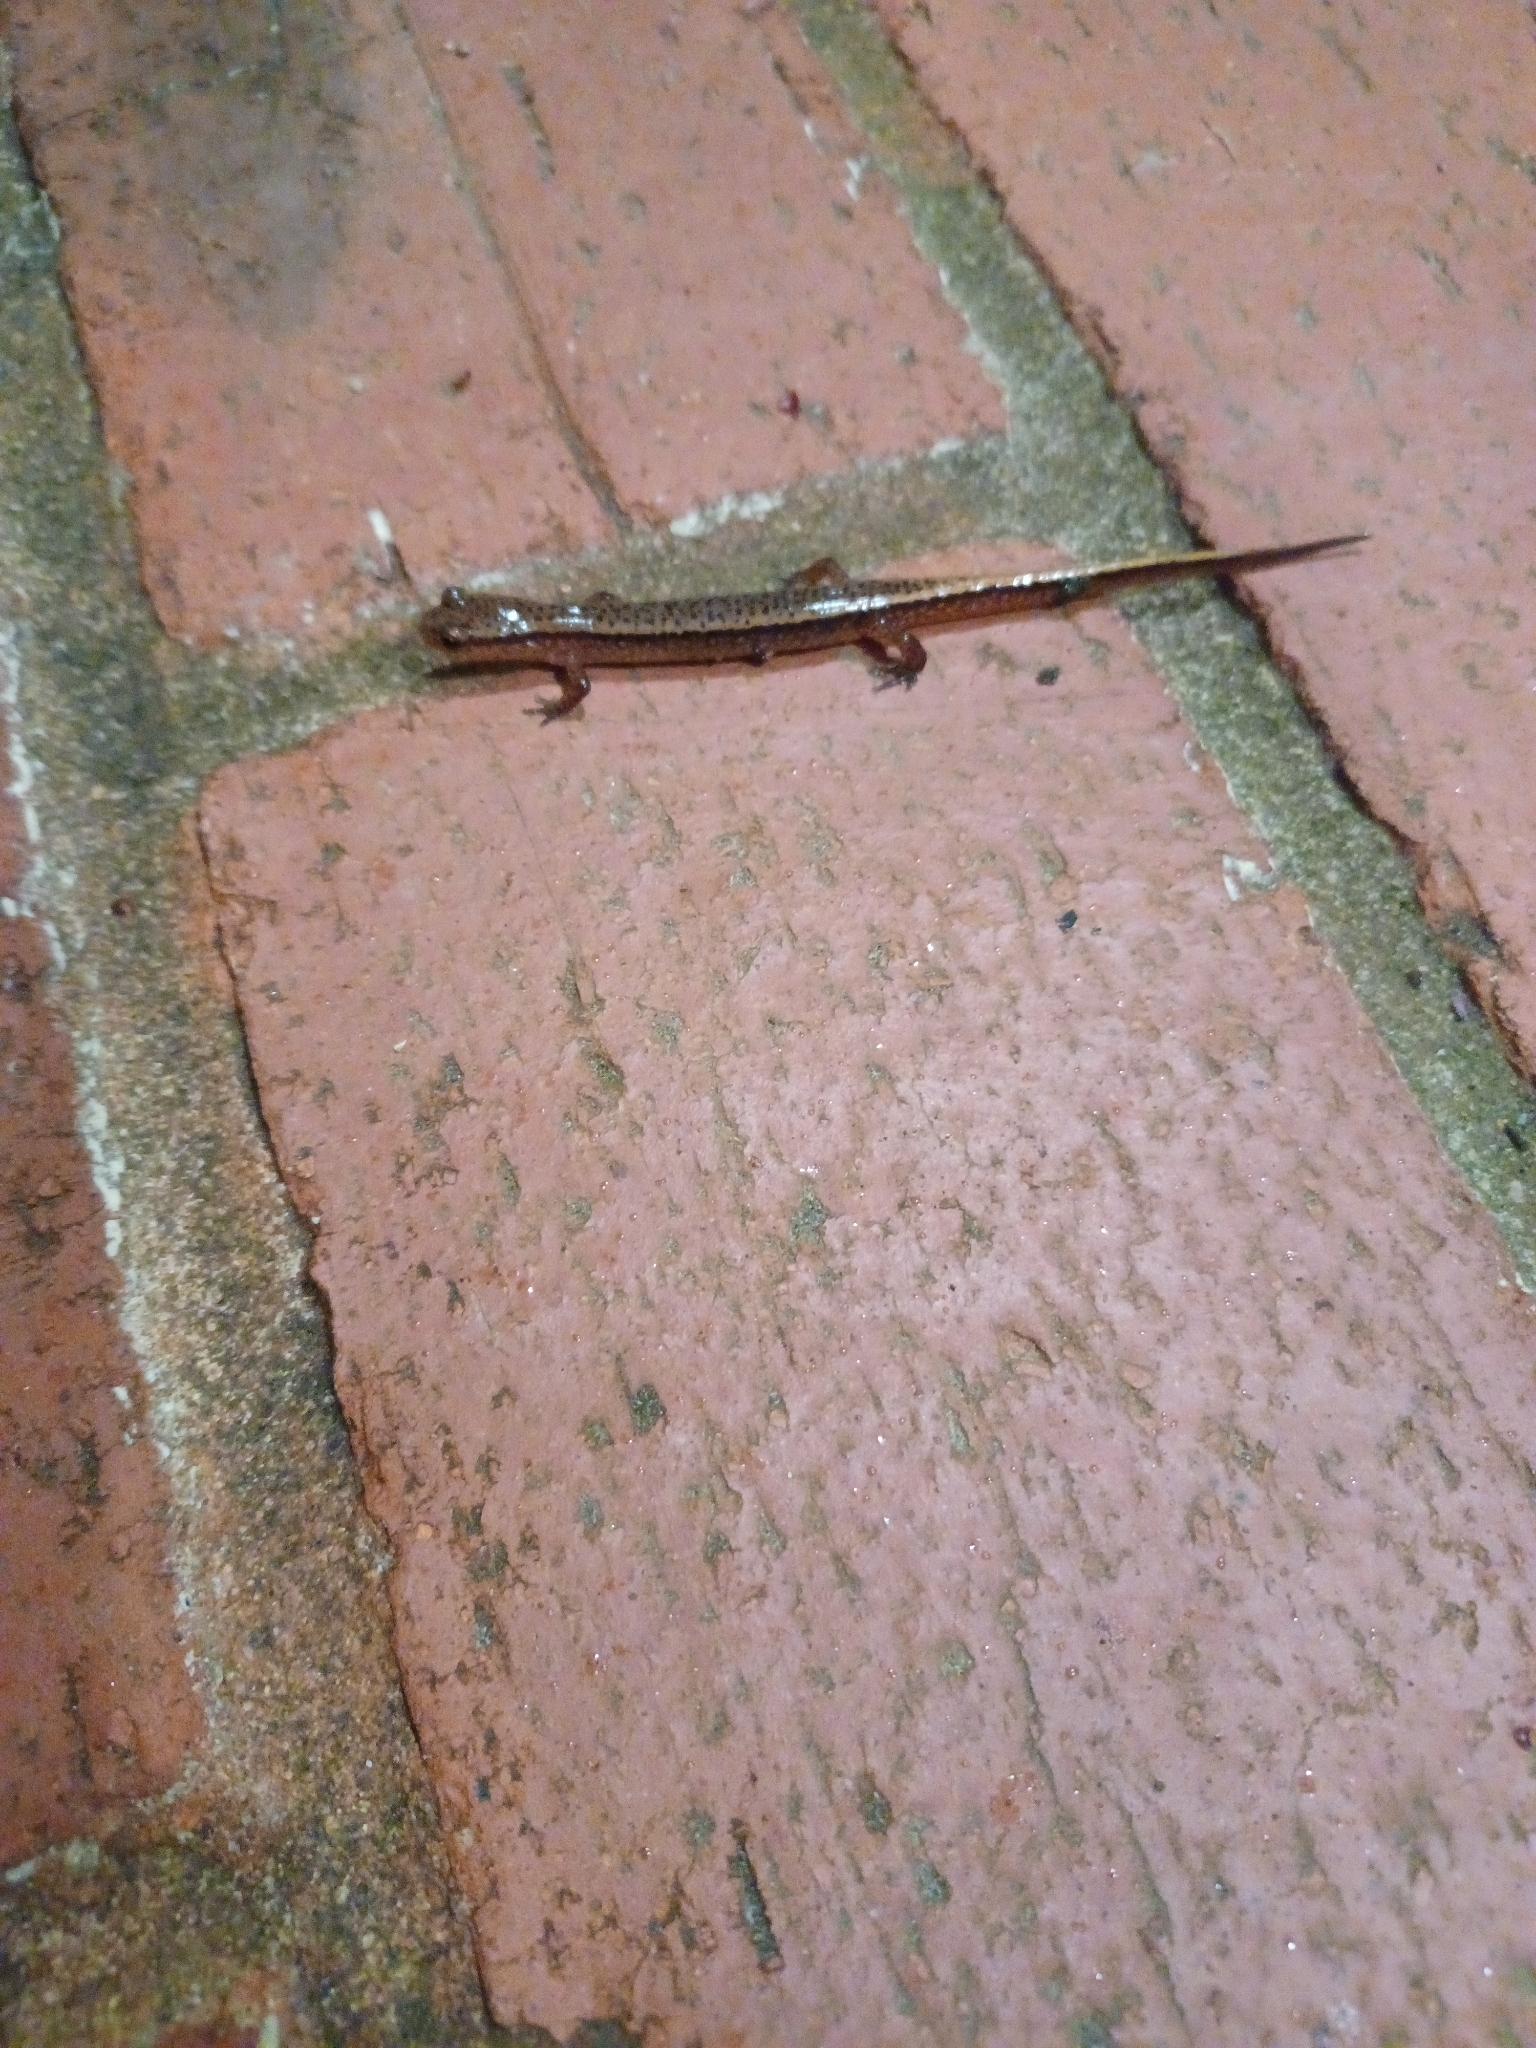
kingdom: Animalia
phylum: Chordata
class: Amphibia
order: Caudata
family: Plethodontidae
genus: Eurycea
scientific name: Eurycea cirrigera
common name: Southern two-lined salamander
